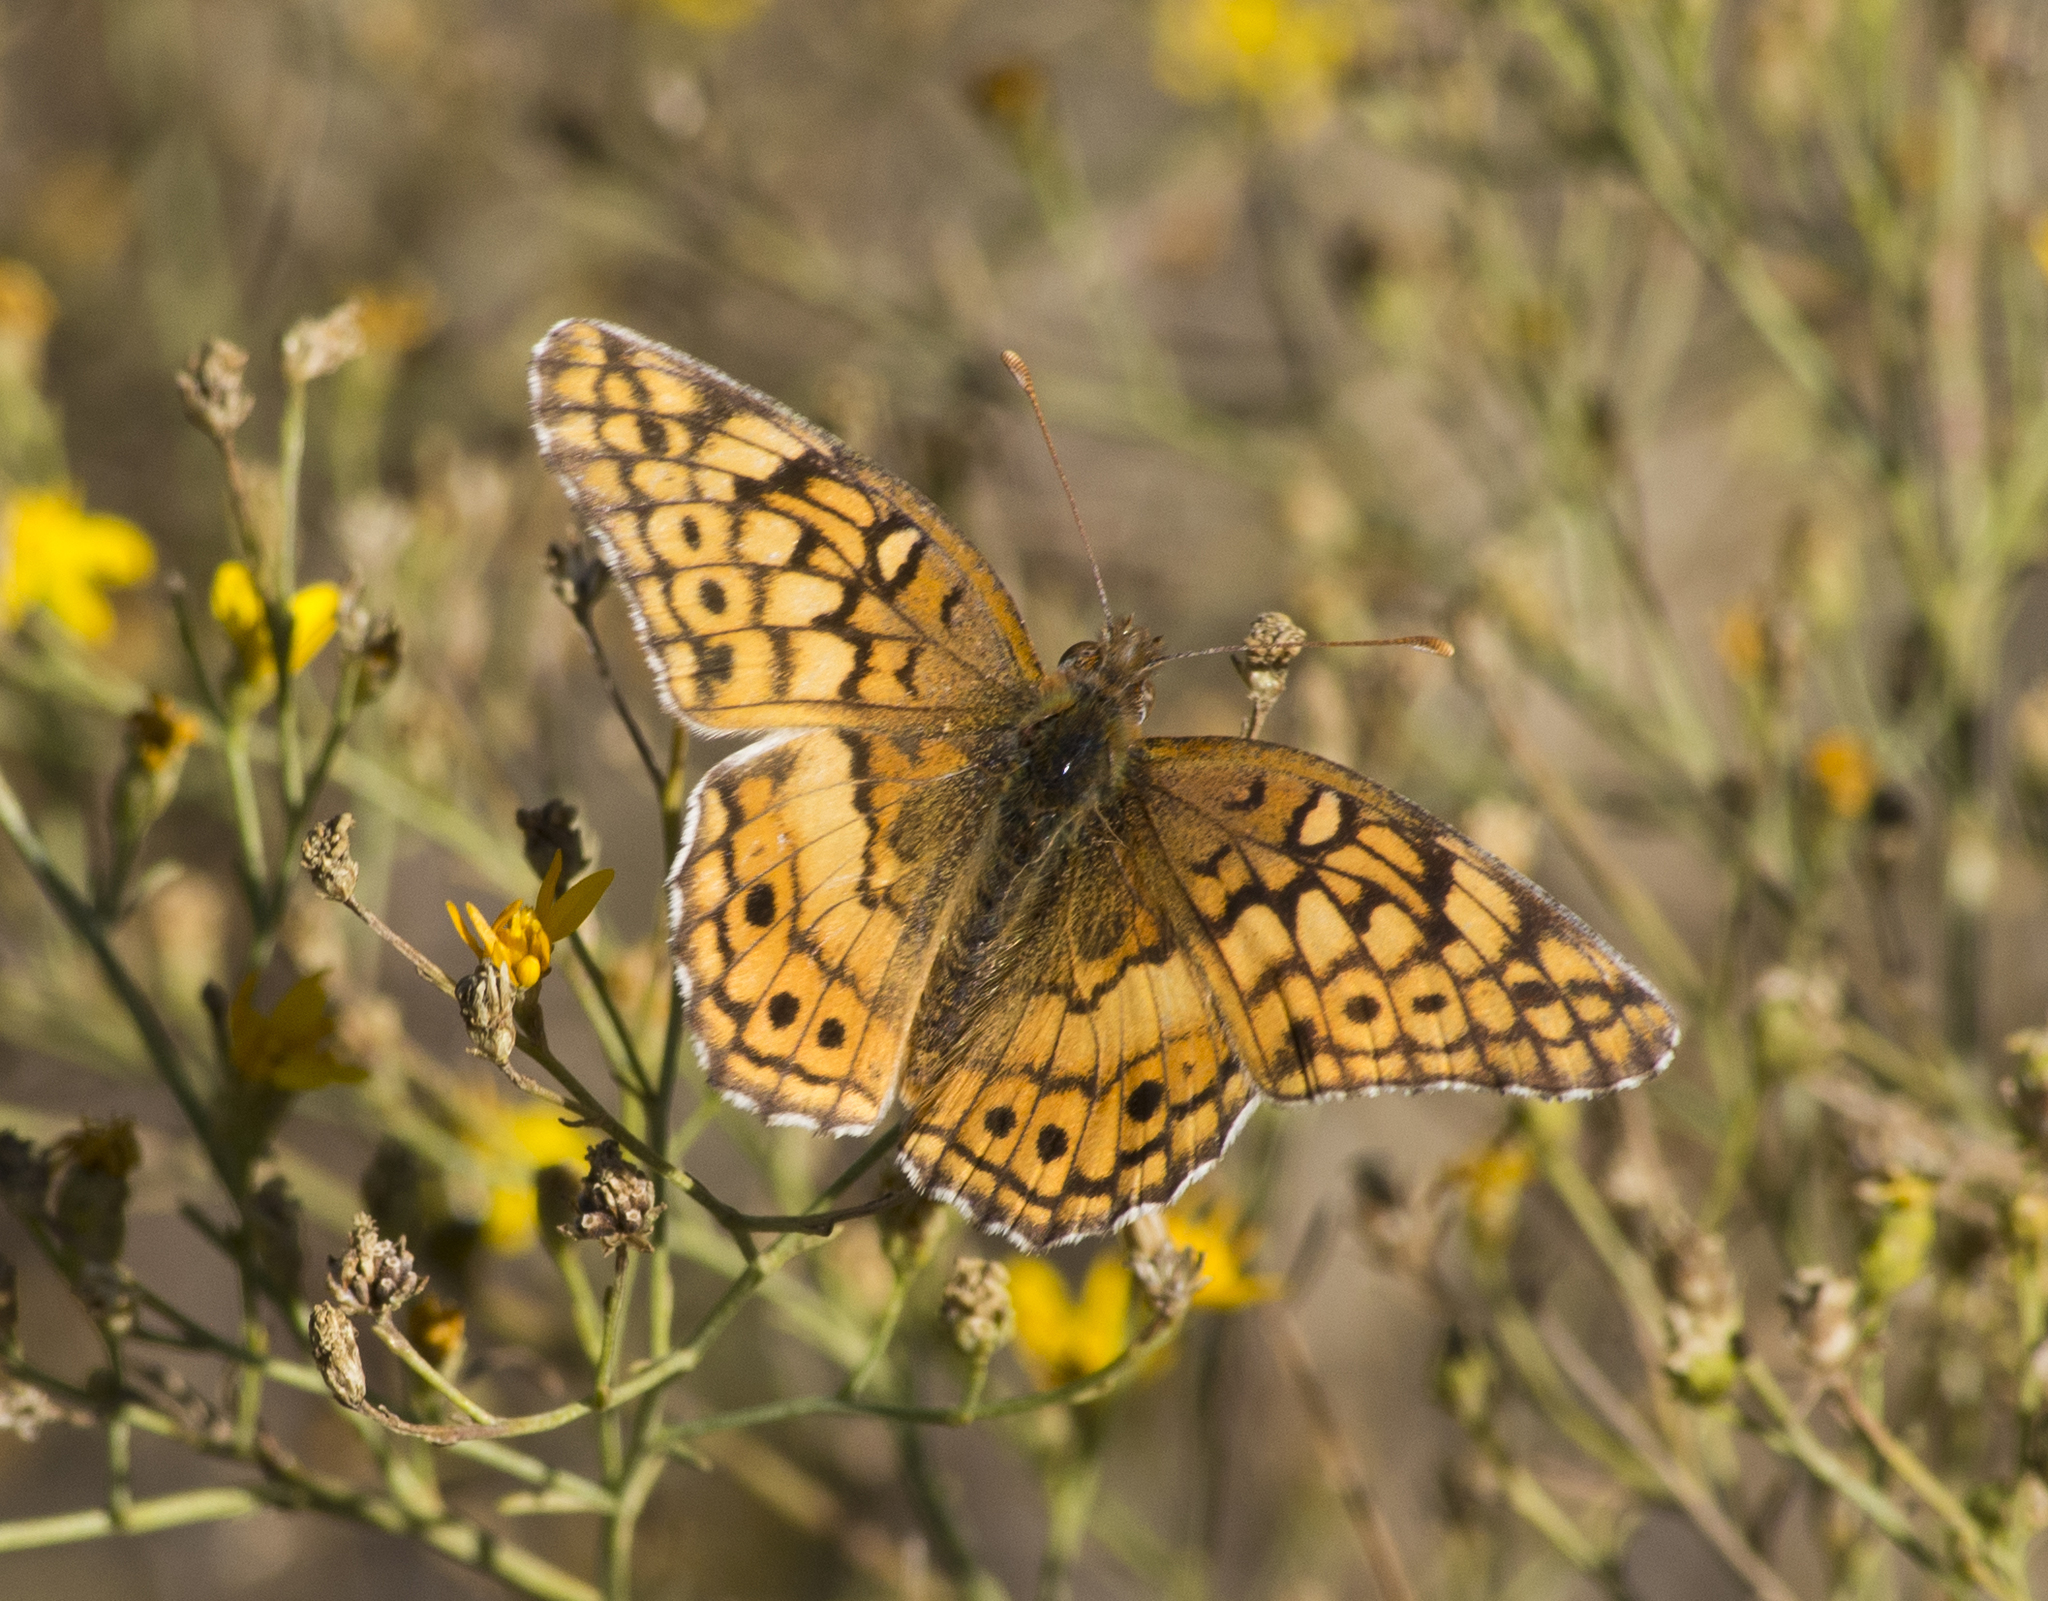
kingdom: Animalia
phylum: Arthropoda
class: Insecta
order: Lepidoptera
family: Nymphalidae
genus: Euptoieta
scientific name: Euptoieta claudia
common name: Variegated fritillary
